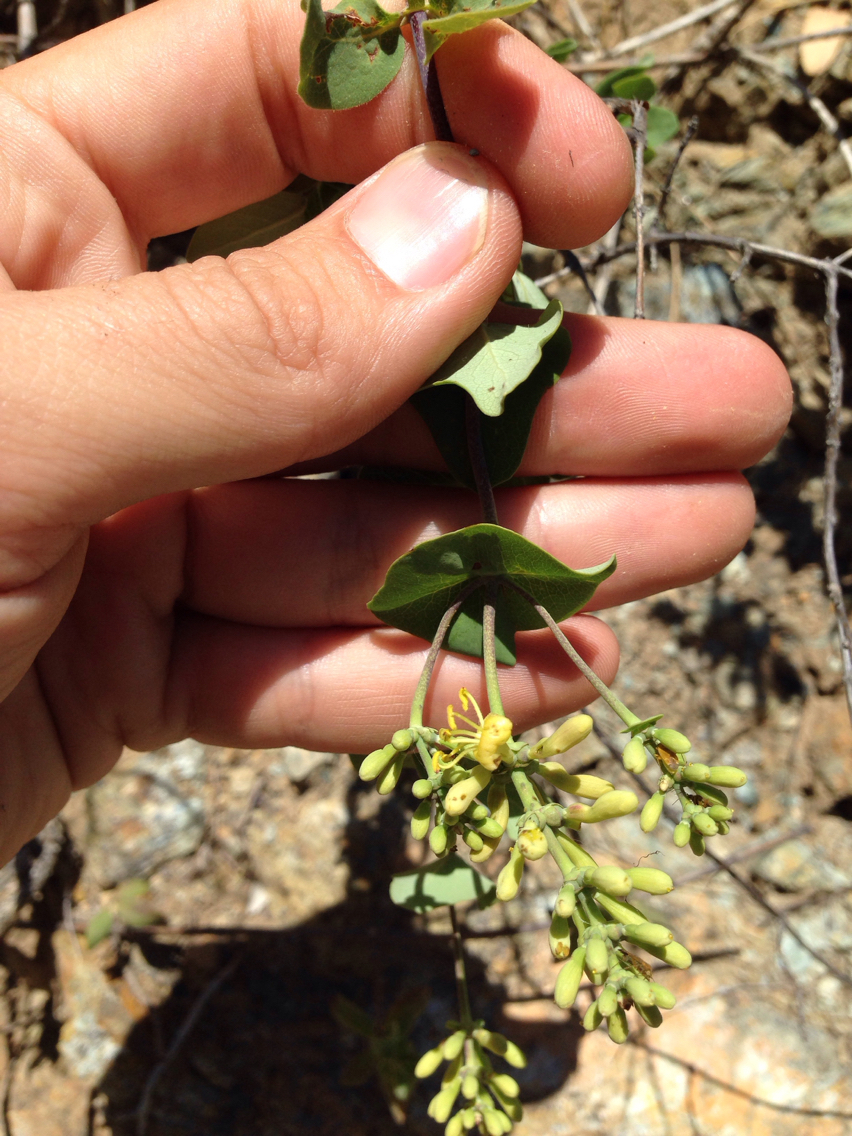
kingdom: Plantae
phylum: Tracheophyta
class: Magnoliopsida
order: Dipsacales
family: Caprifoliaceae
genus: Lonicera
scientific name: Lonicera interrupta
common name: Chaparral honeysuckle
